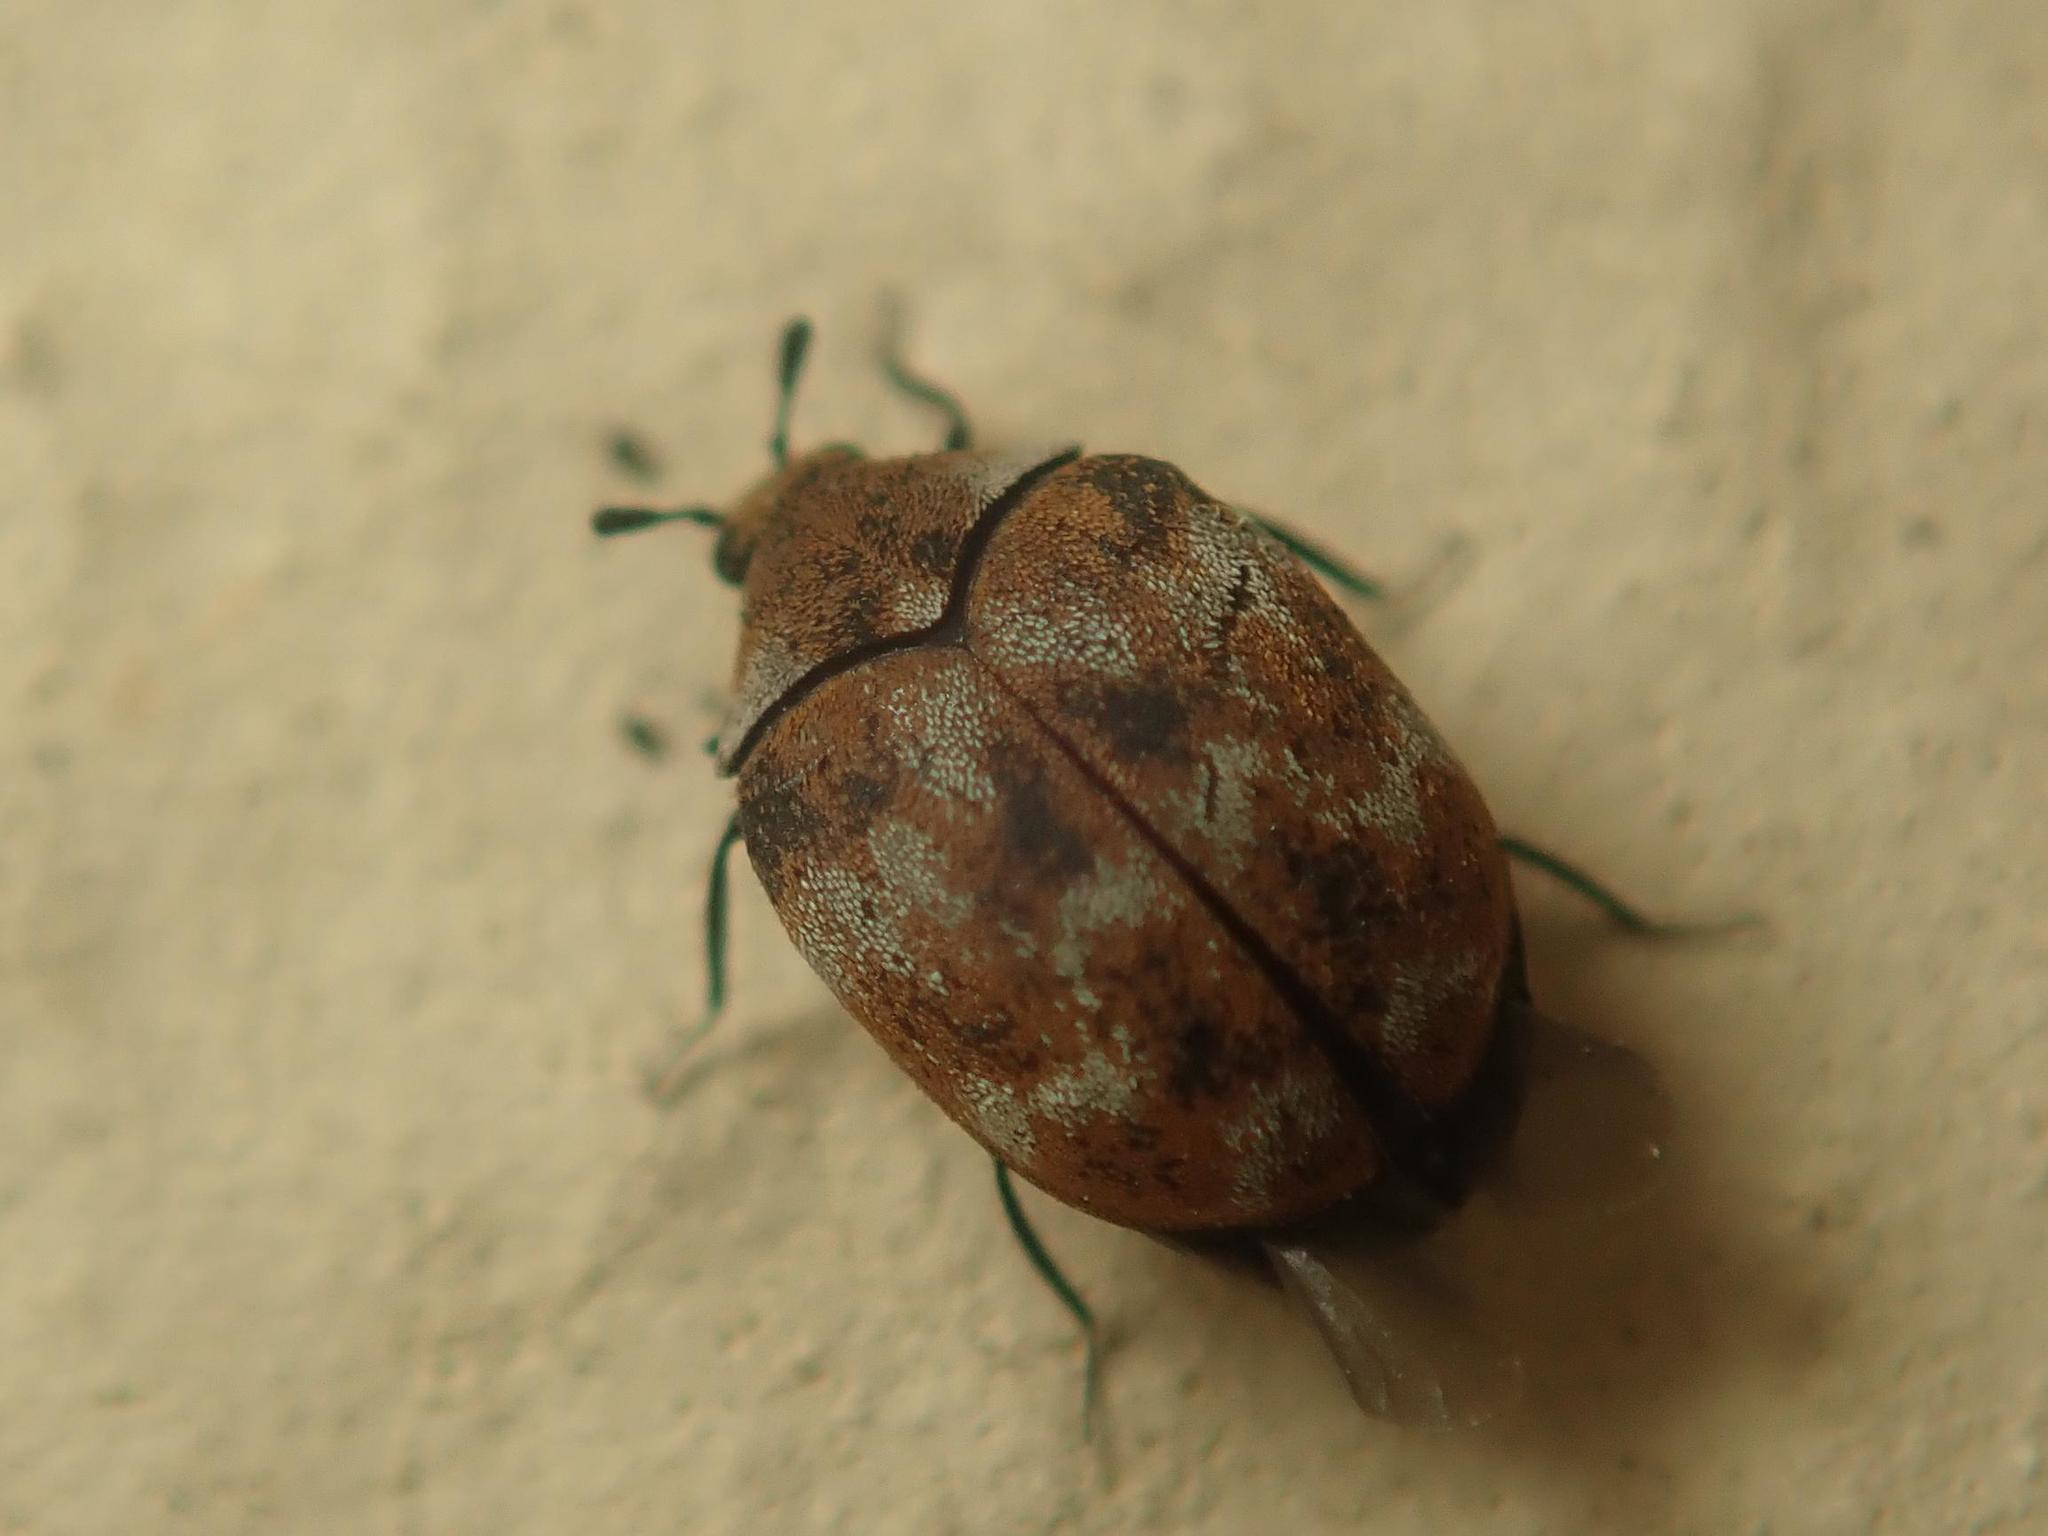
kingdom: Animalia
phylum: Arthropoda
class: Insecta
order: Coleoptera
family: Dermestidae
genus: Anthrenus
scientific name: Anthrenus verbasci
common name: Varied carpet beetle
